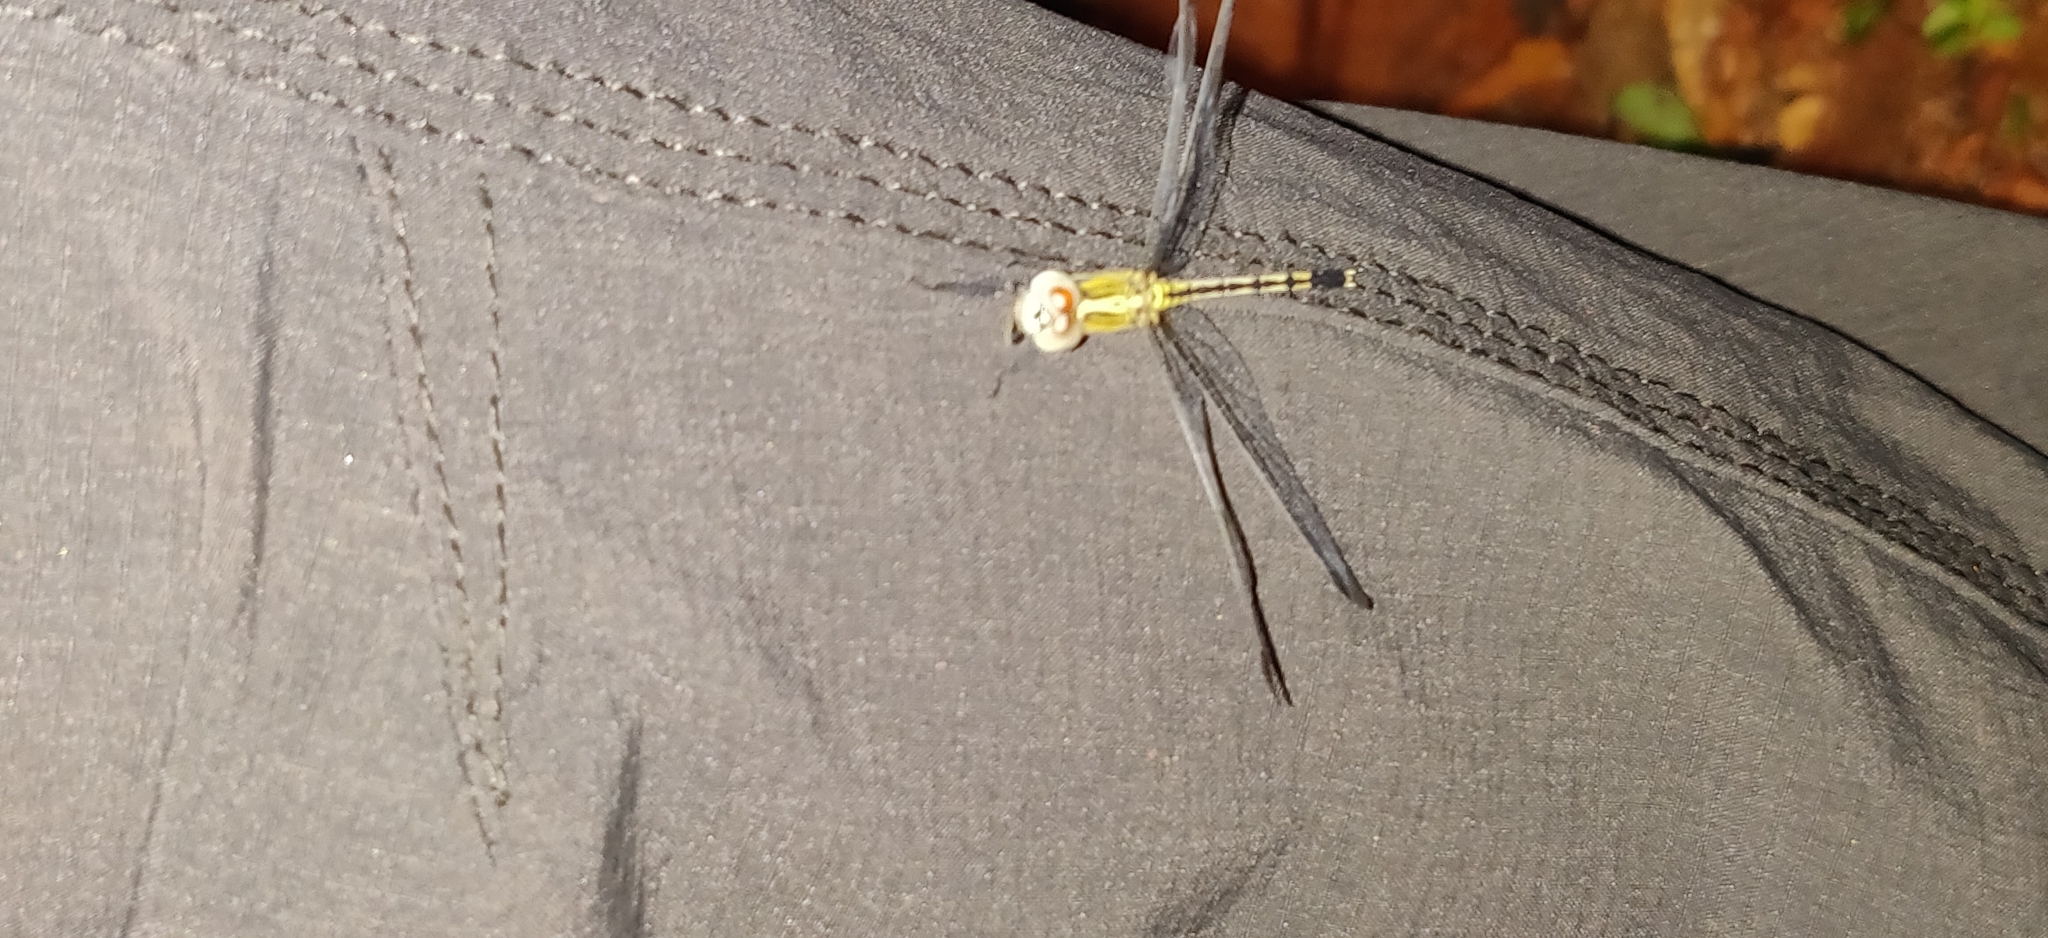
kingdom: Animalia
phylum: Arthropoda
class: Insecta
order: Odonata
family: Libellulidae
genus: Diplacodes
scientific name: Diplacodes trivialis
